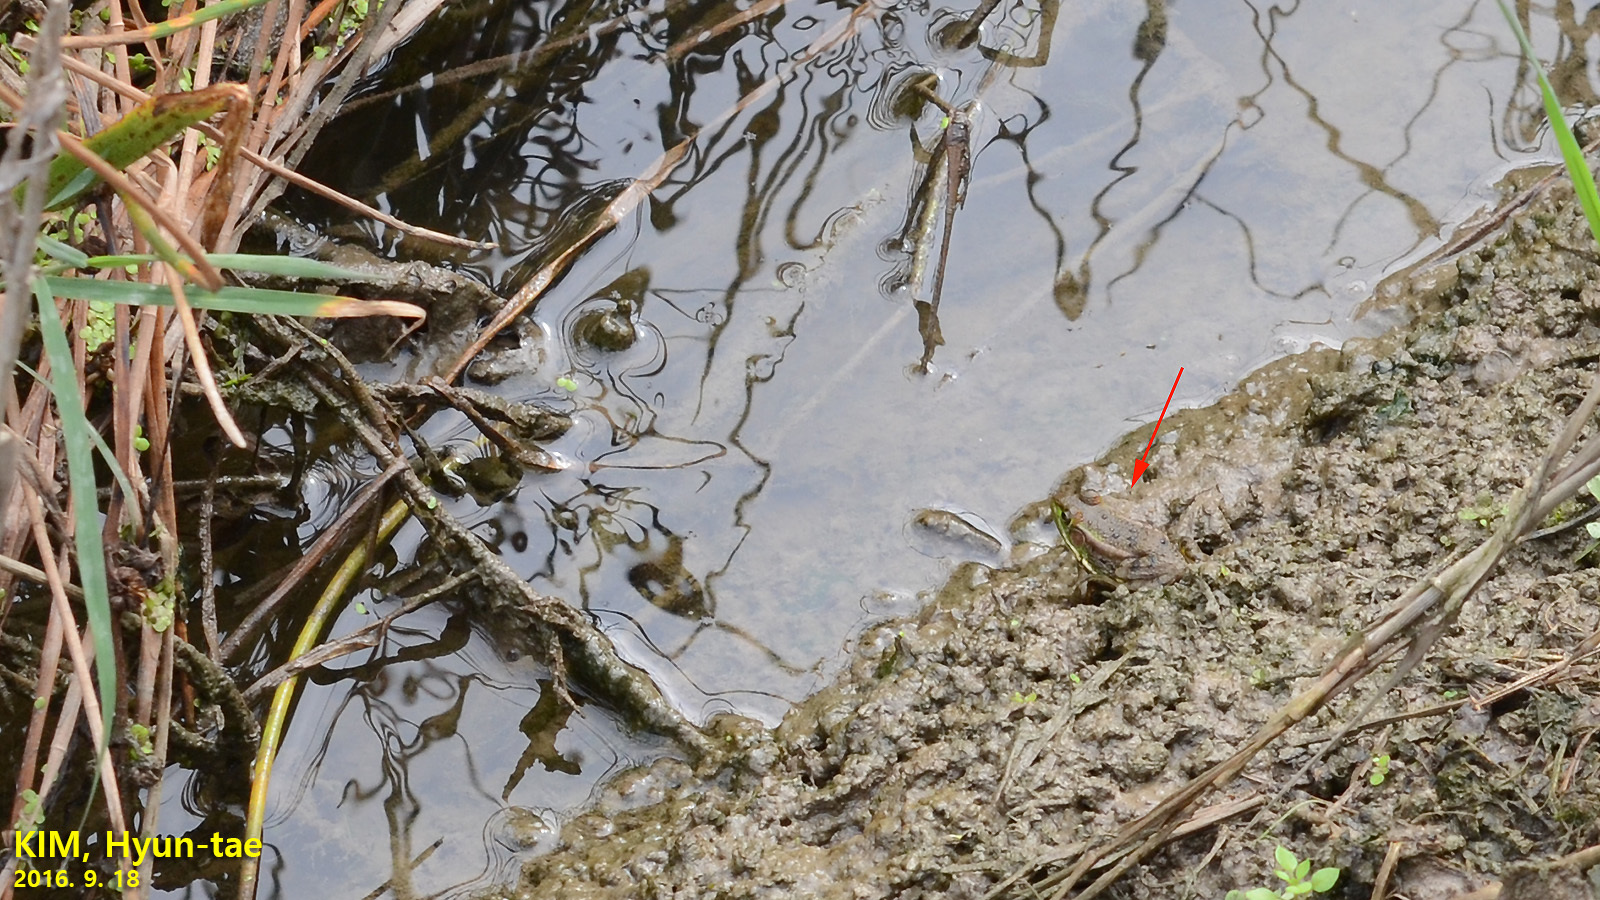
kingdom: Animalia
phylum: Chordata
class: Amphibia
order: Anura
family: Ranidae
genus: Pelophylax
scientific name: Pelophylax chosenicus
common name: Gold-spotted pond frog
